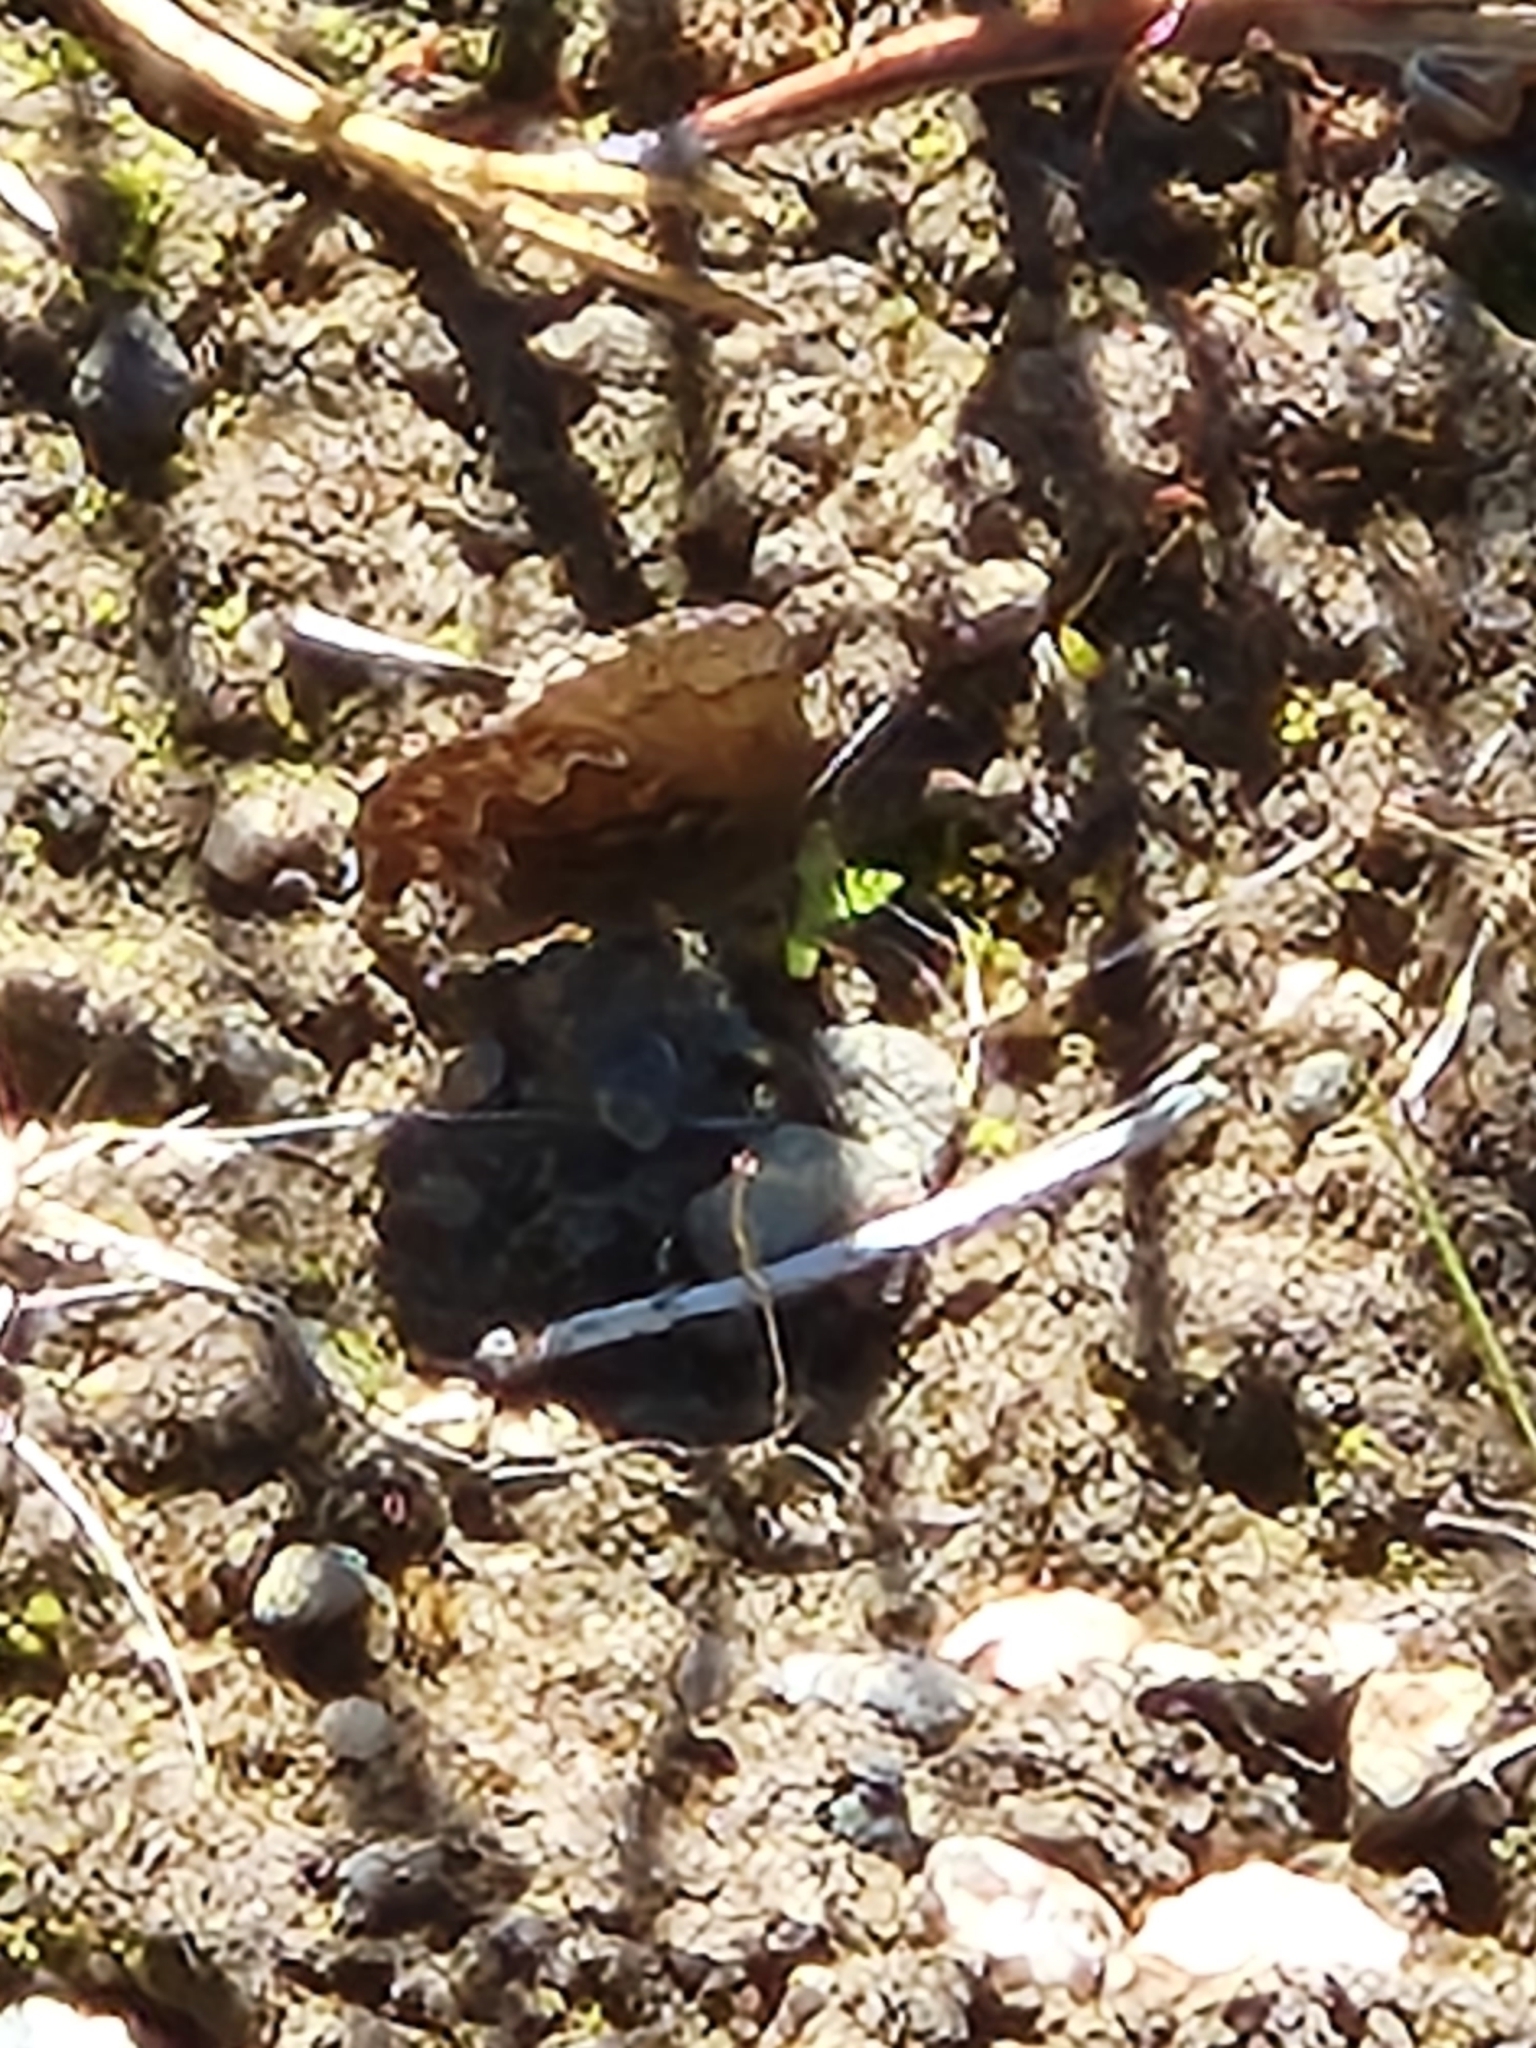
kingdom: Animalia
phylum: Arthropoda
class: Insecta
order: Lepidoptera
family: Lycaenidae
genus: Incisalia
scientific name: Incisalia eryphon
